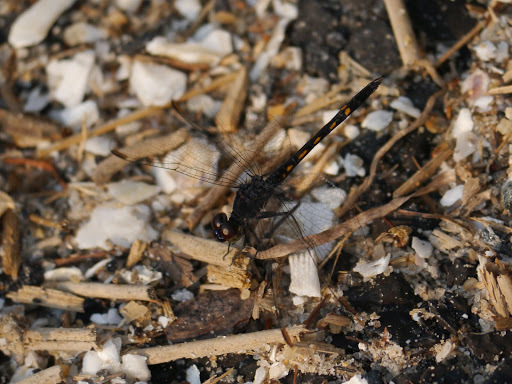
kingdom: Animalia
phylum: Arthropoda
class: Insecta
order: Odonata
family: Libellulidae
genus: Erythrodiplax
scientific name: Erythrodiplax berenice
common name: Seaside dragonlet
